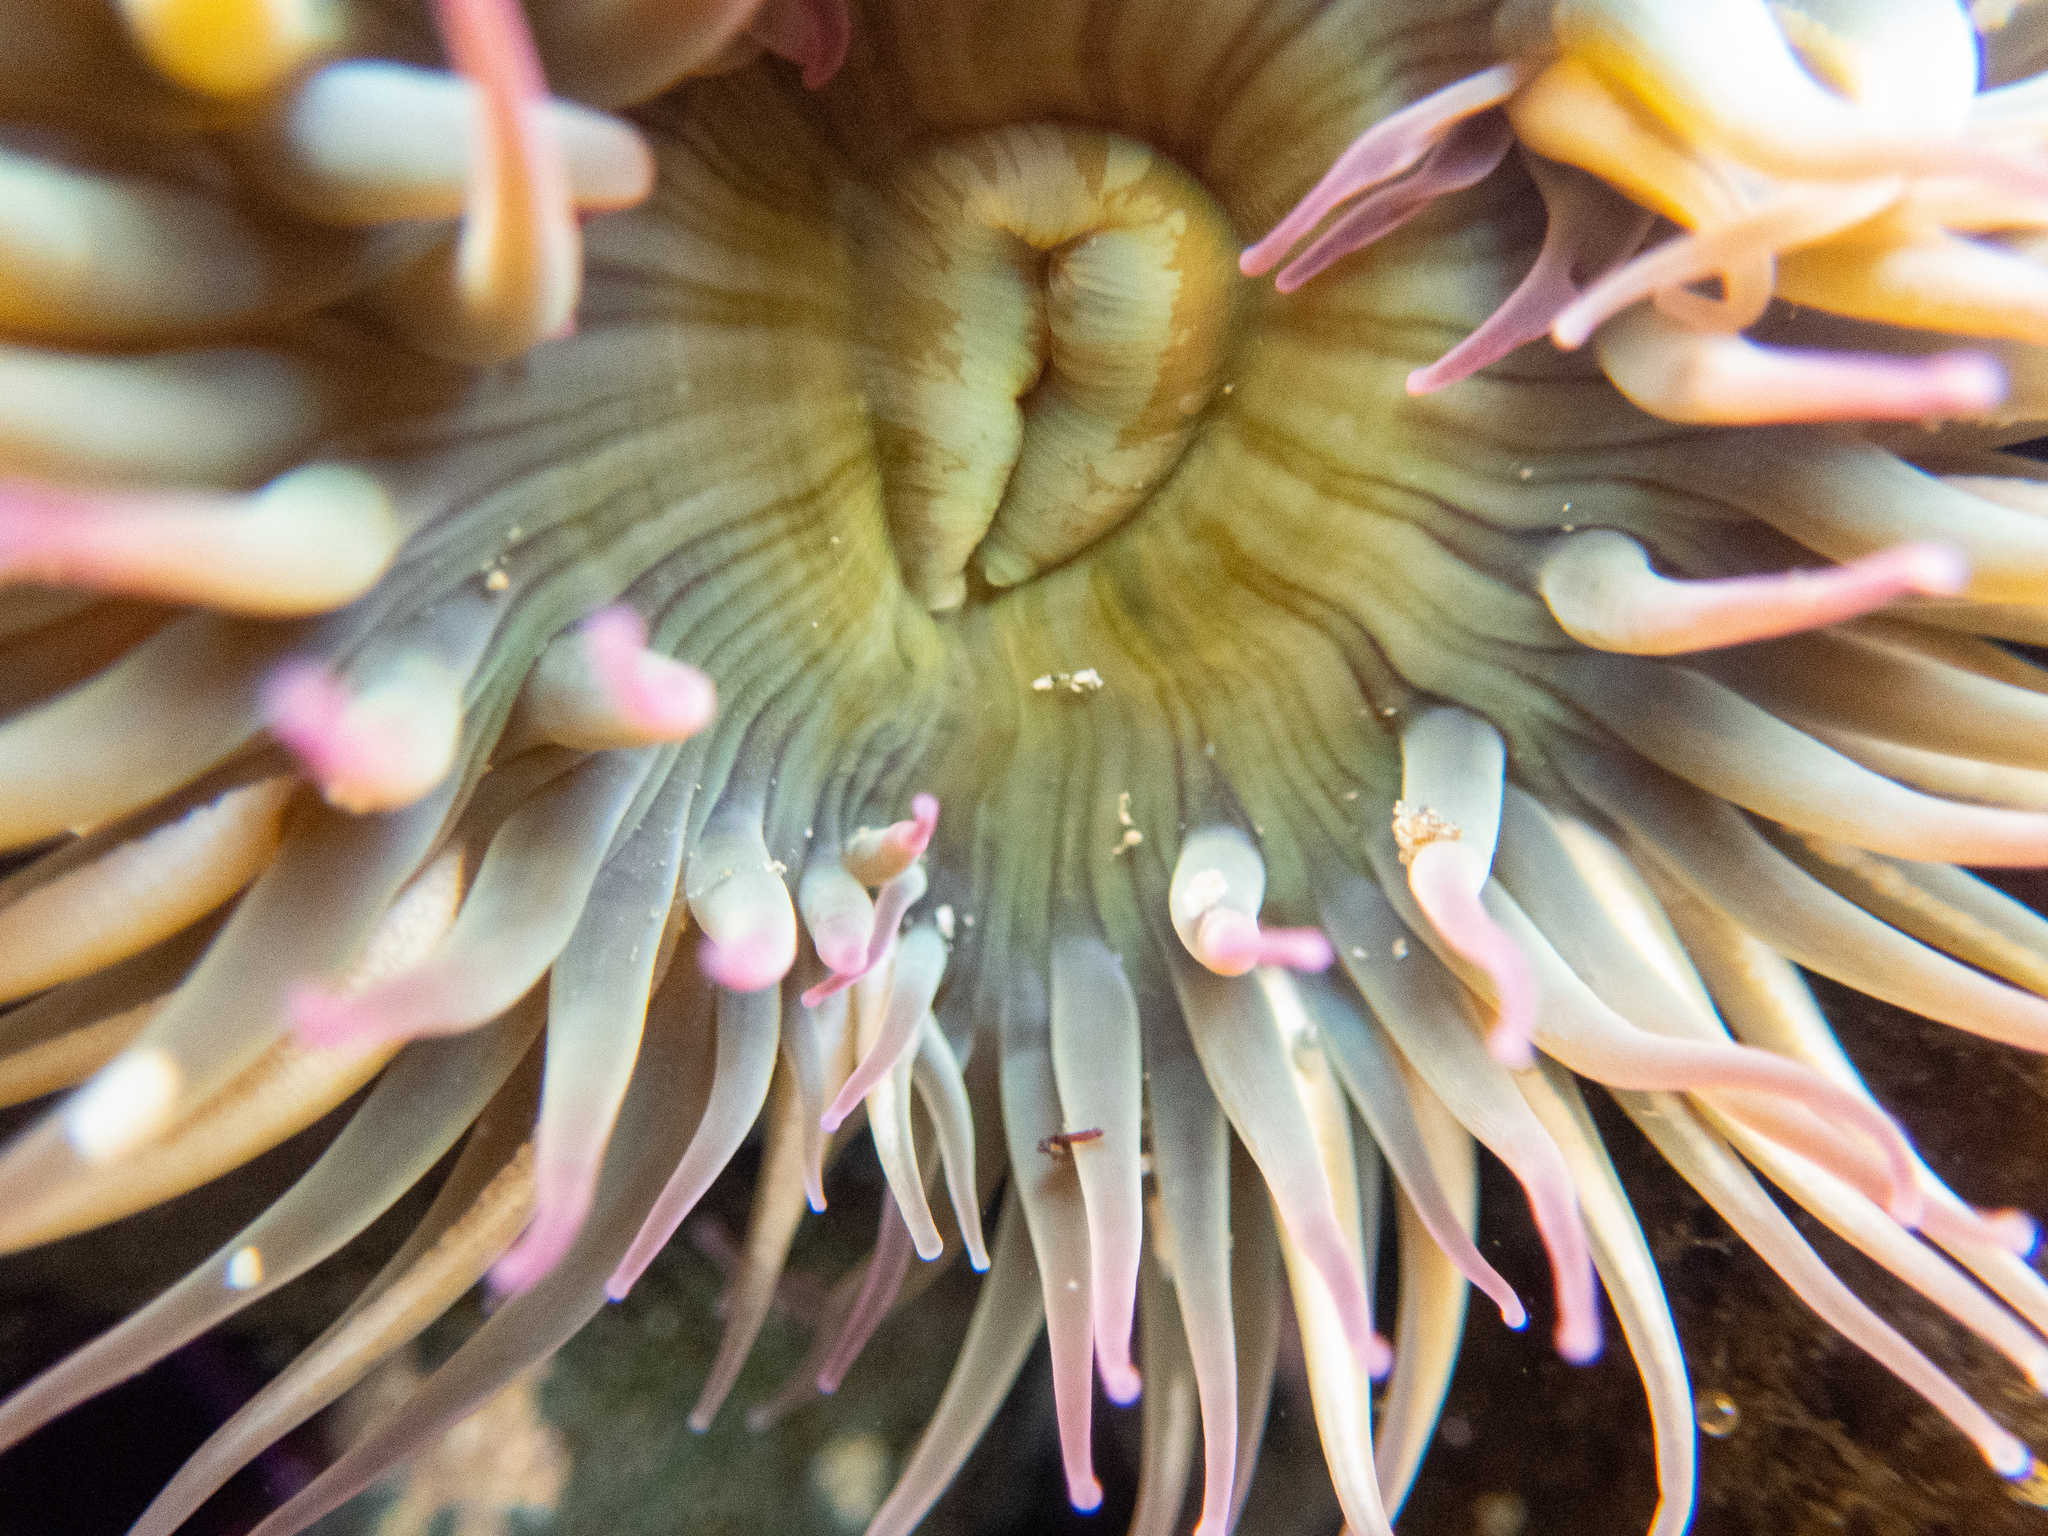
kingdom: Animalia
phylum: Cnidaria
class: Anthozoa
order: Actiniaria
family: Actiniidae
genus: Anthopleura
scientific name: Anthopleura elegantissima
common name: Clonal anemone
